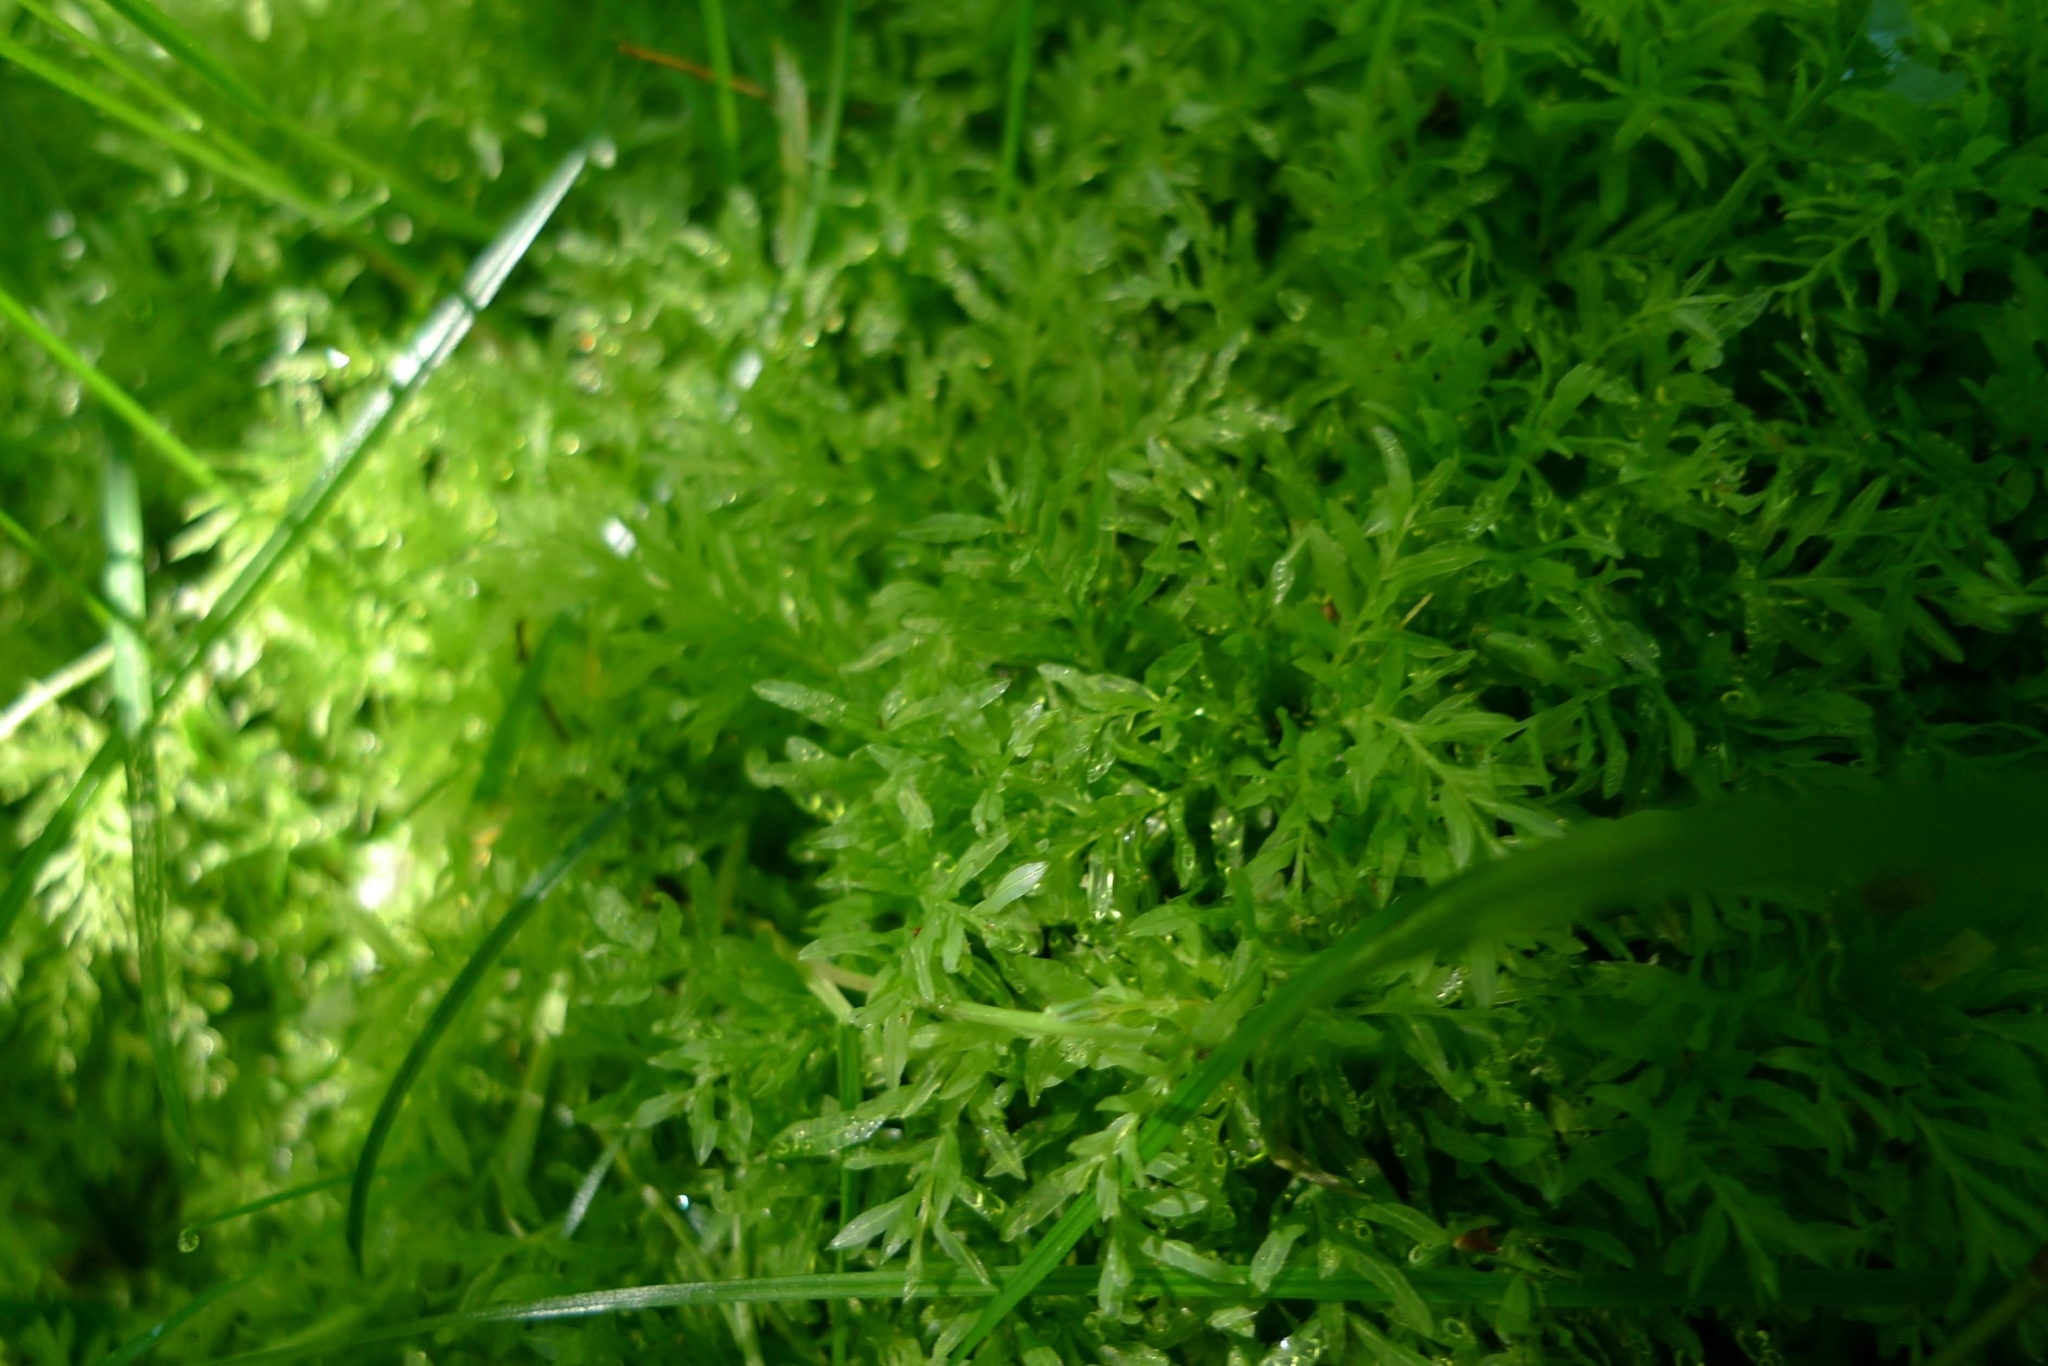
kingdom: Plantae
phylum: Bryophyta
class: Bryopsida
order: Bryales
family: Mniaceae
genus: Plagiomnium
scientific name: Plagiomnium undulatum
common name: Hart's-tongue thyme-moss
